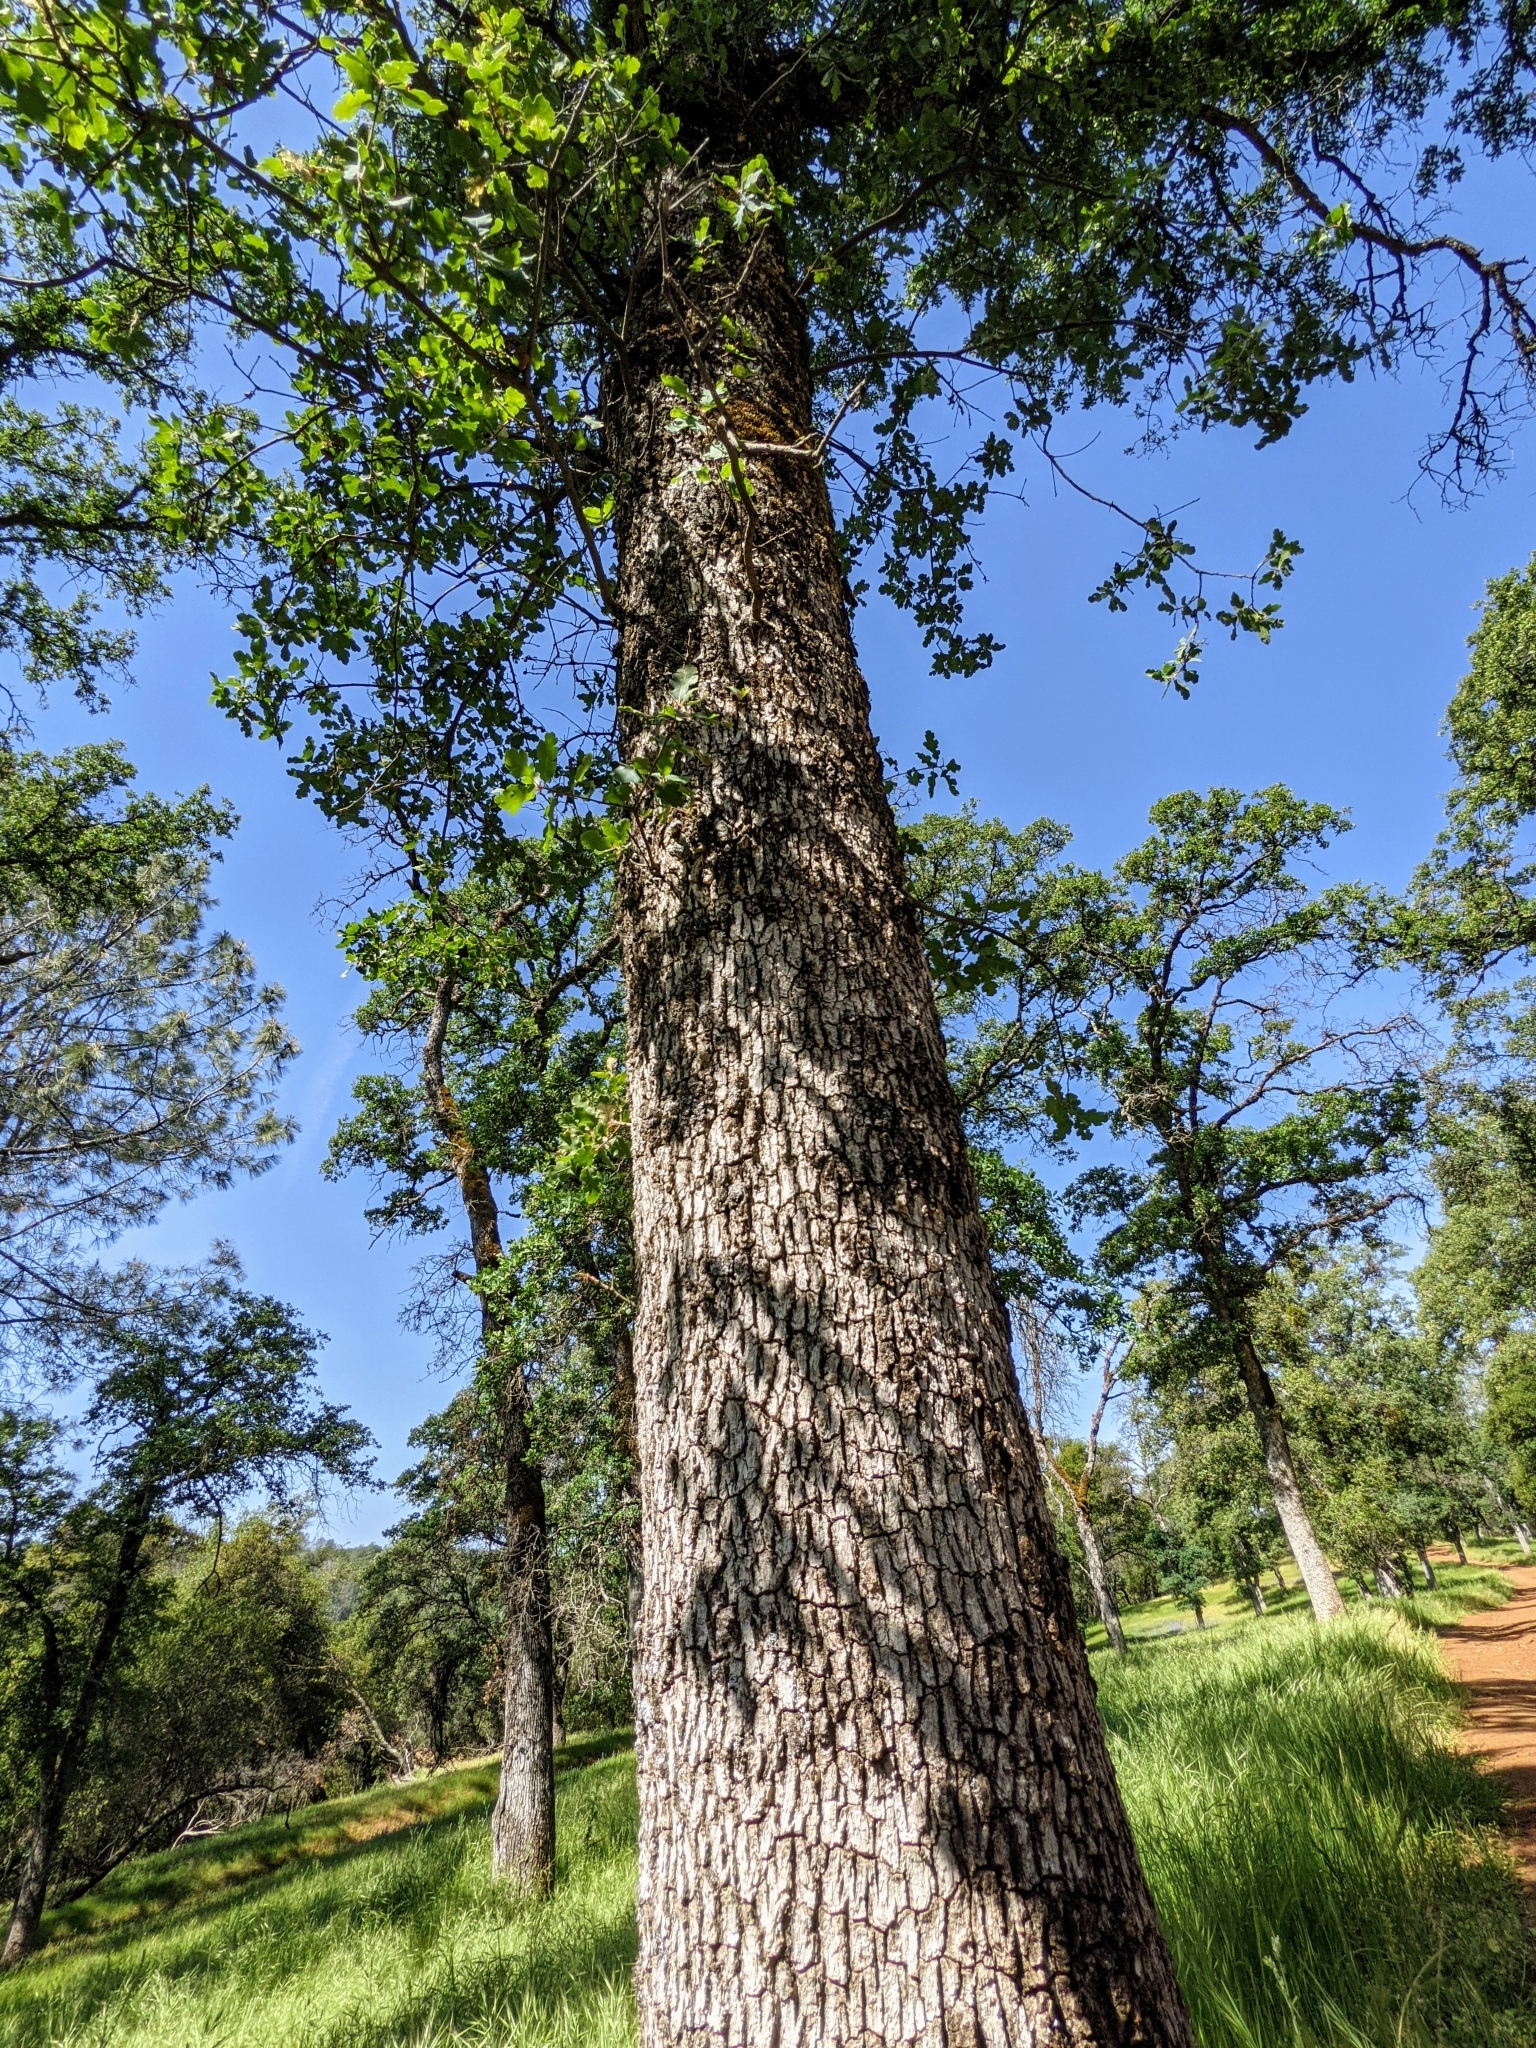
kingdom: Plantae
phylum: Tracheophyta
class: Magnoliopsida
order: Fagales
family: Fagaceae
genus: Quercus
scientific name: Quercus douglasii
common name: Blue oak
